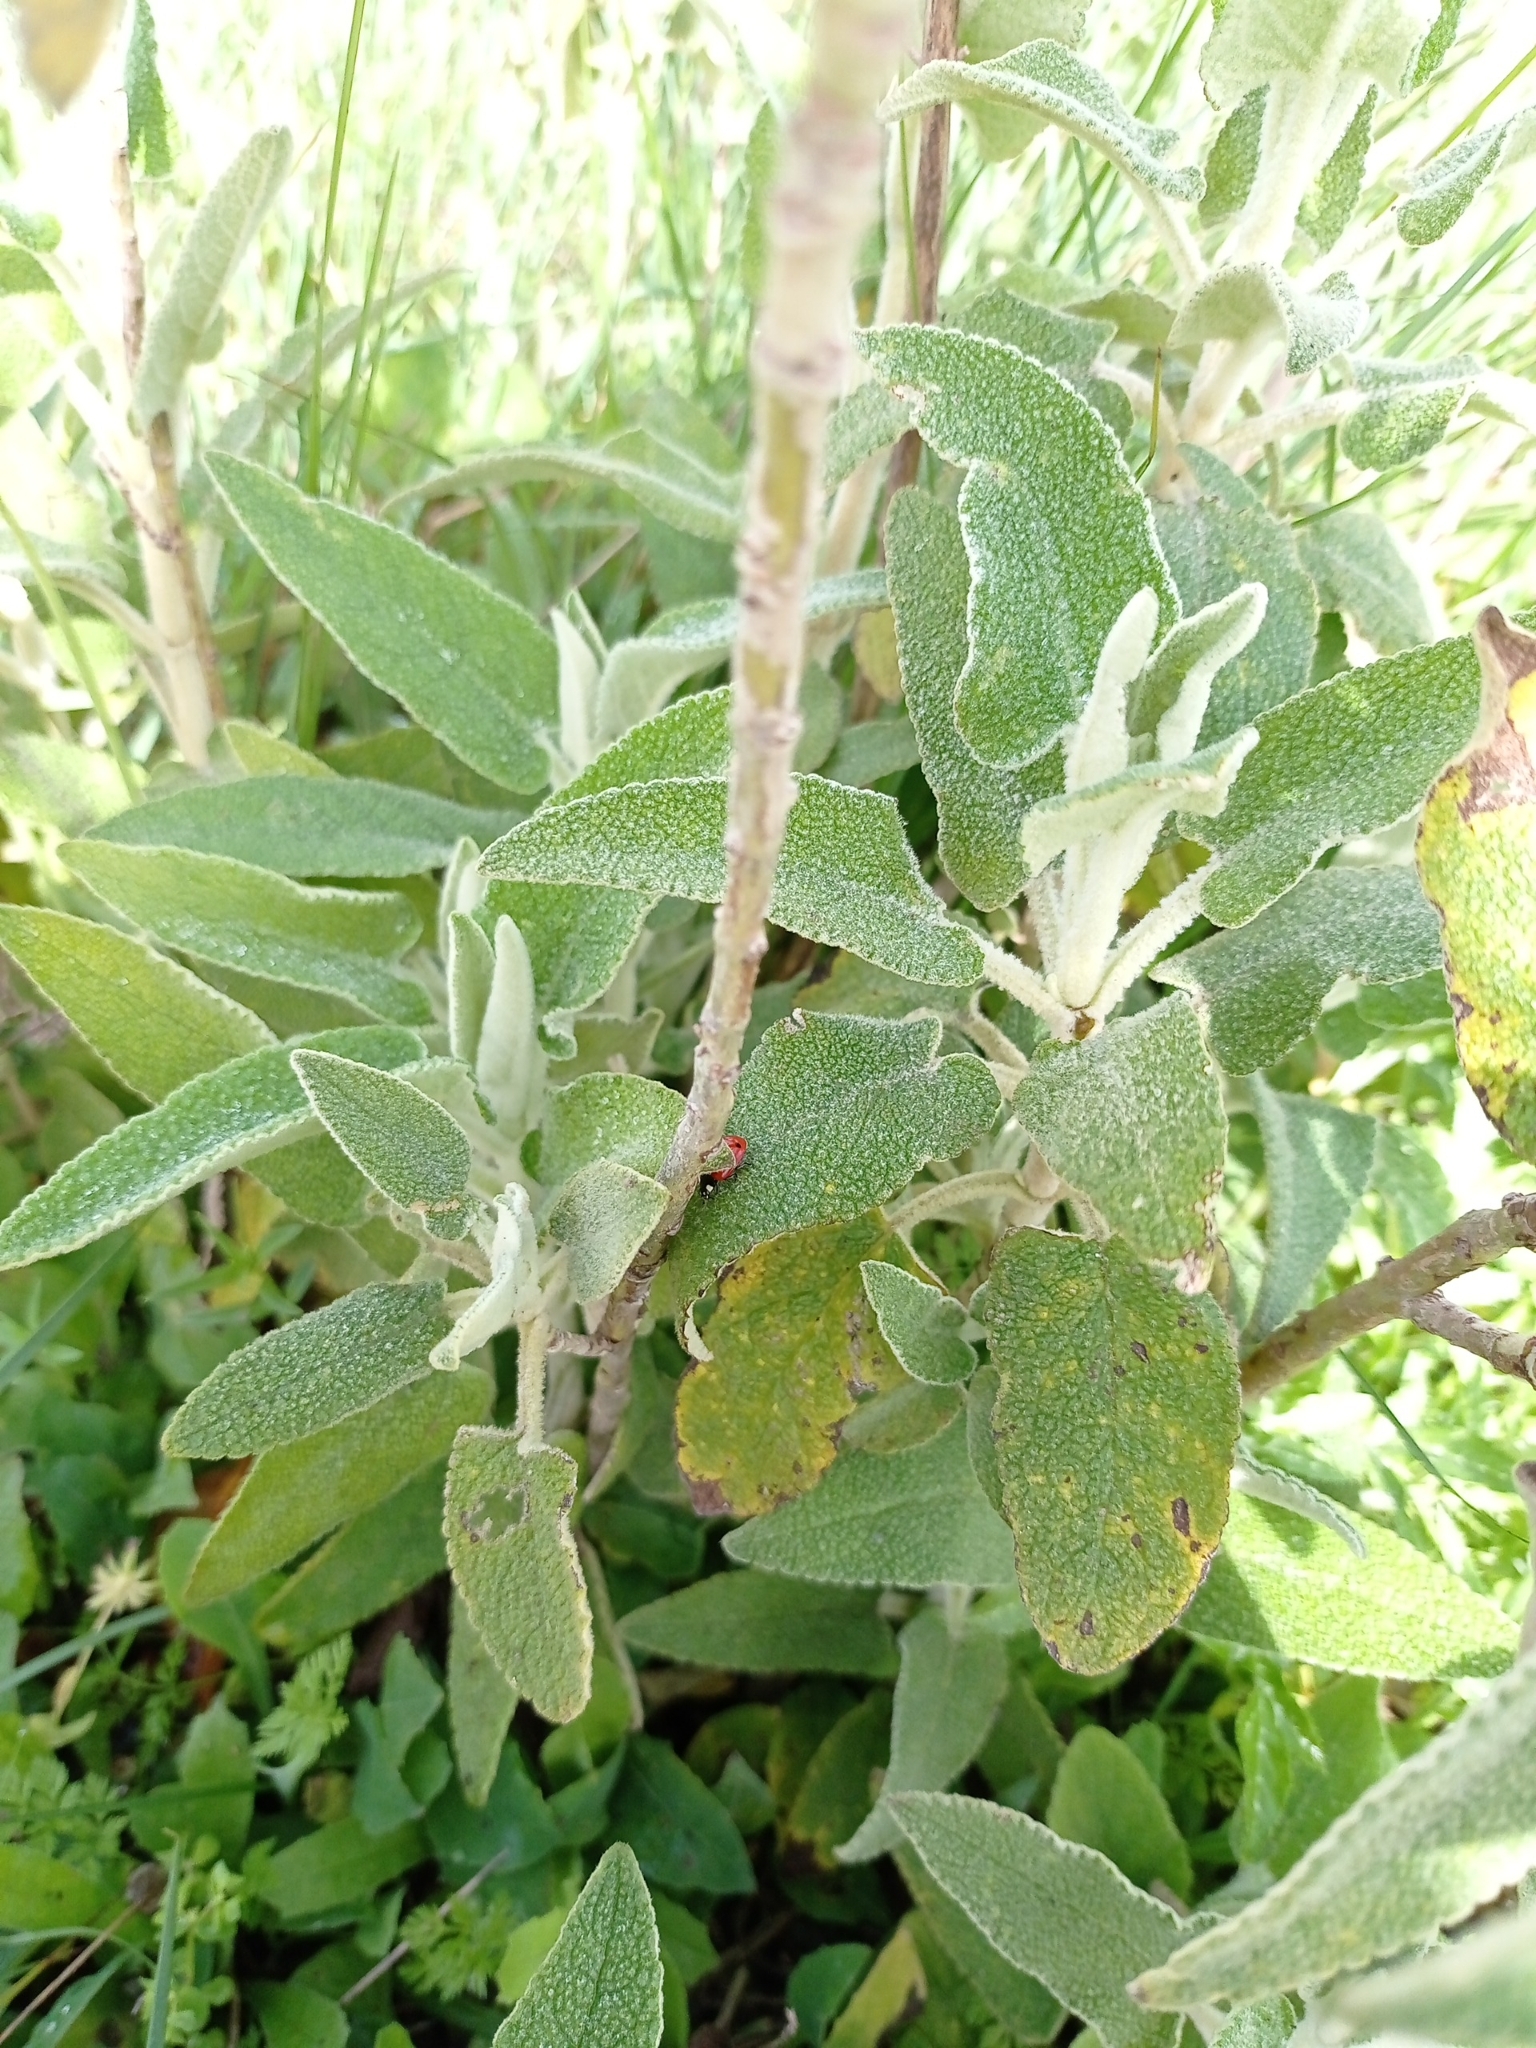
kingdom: Plantae
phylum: Tracheophyta
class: Magnoliopsida
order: Lamiales
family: Lamiaceae
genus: Phlomis
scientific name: Phlomis purpurea
